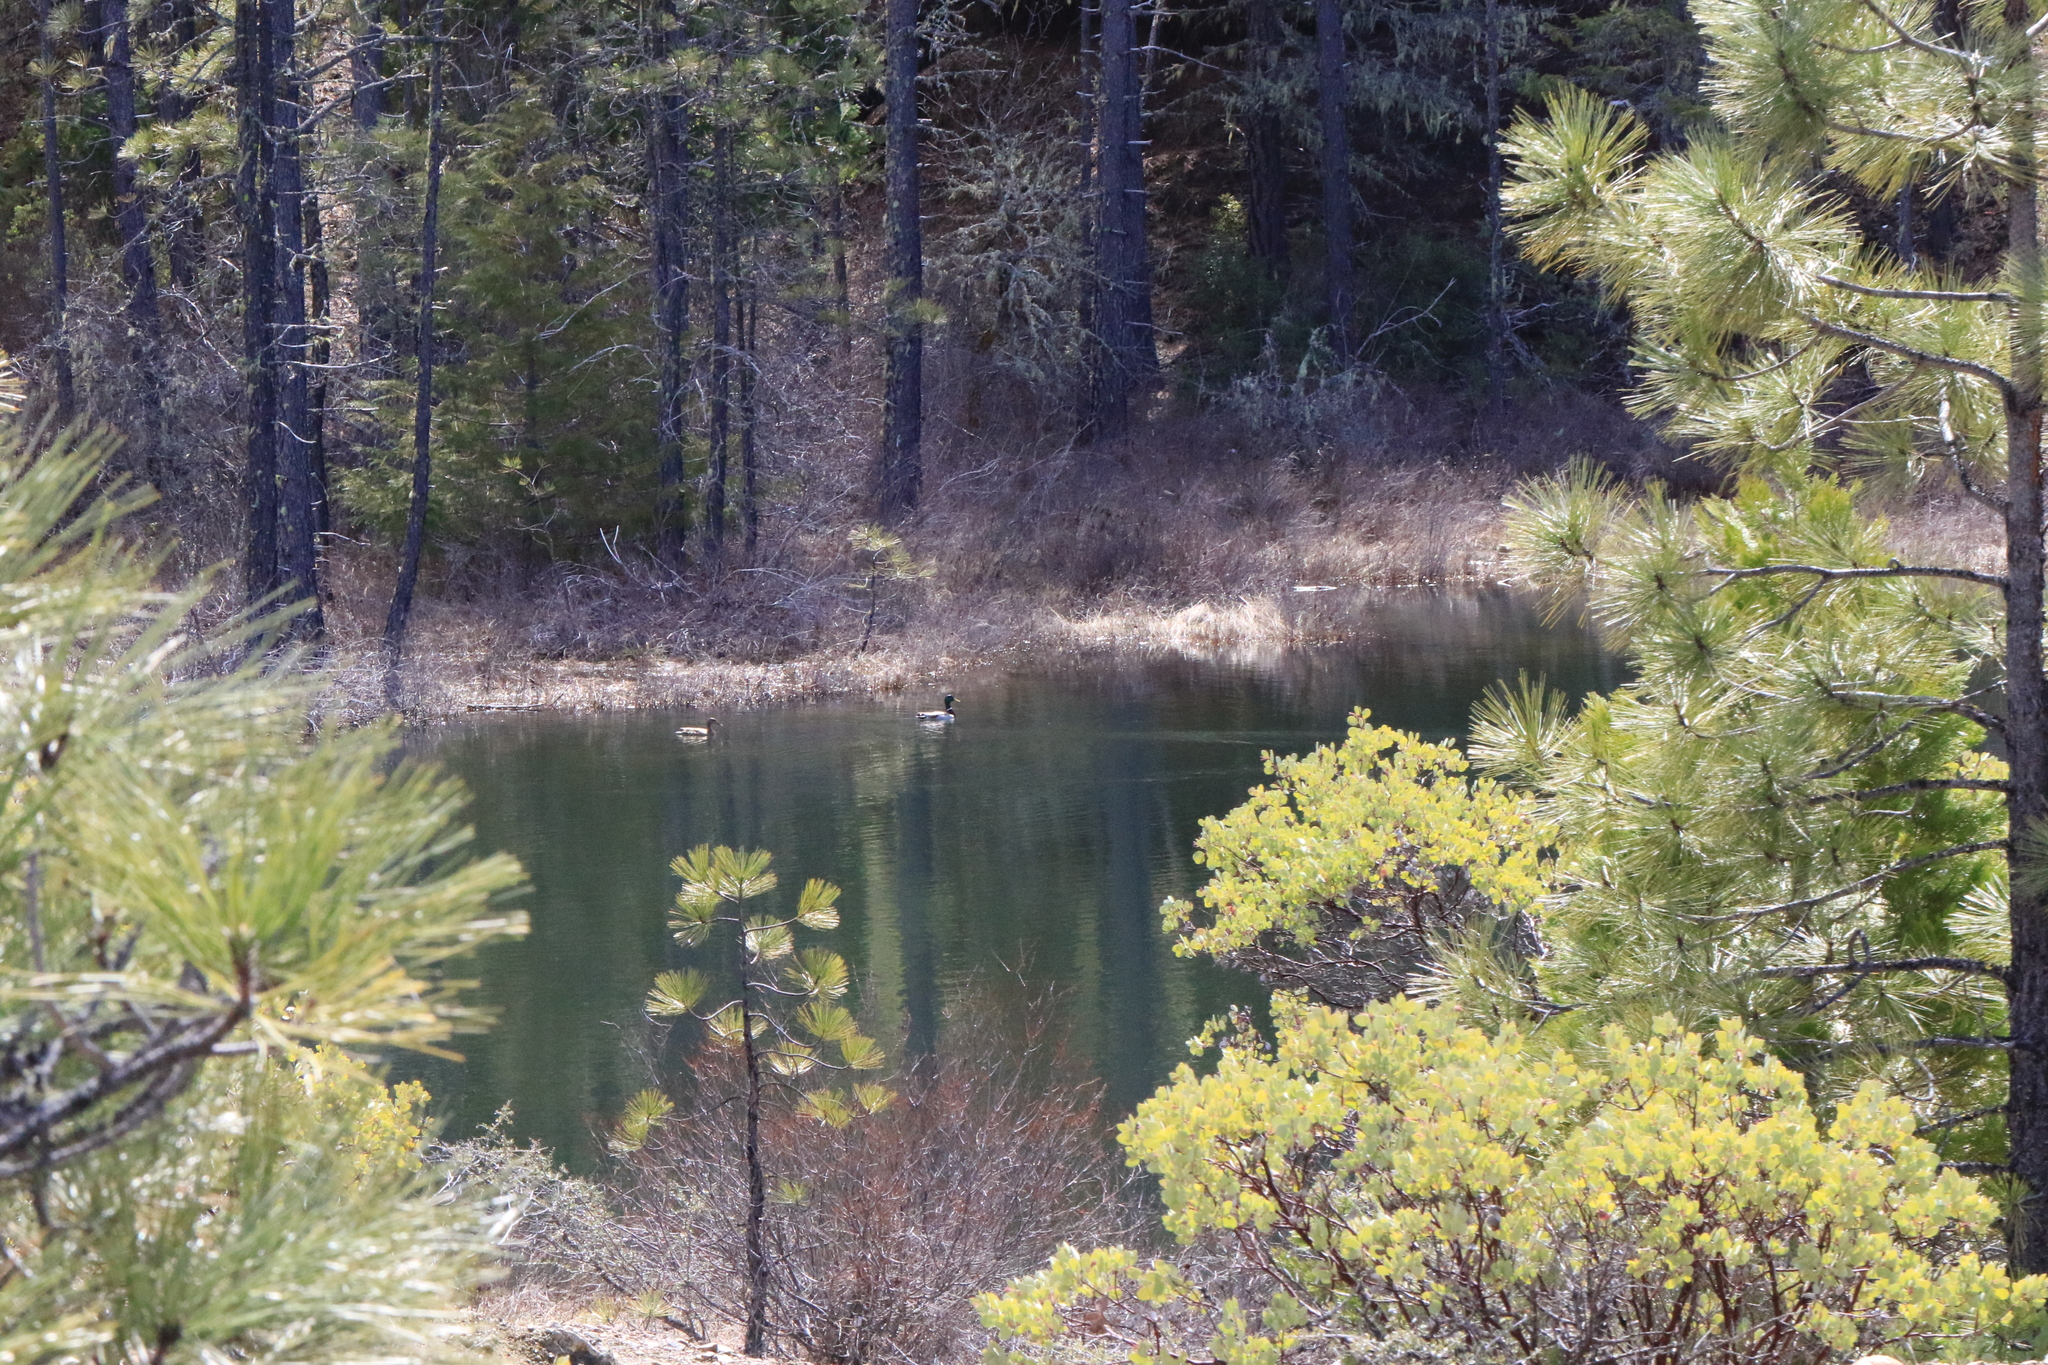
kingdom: Animalia
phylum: Chordata
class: Aves
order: Anseriformes
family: Anatidae
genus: Anas
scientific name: Anas platyrhynchos
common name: Mallard
